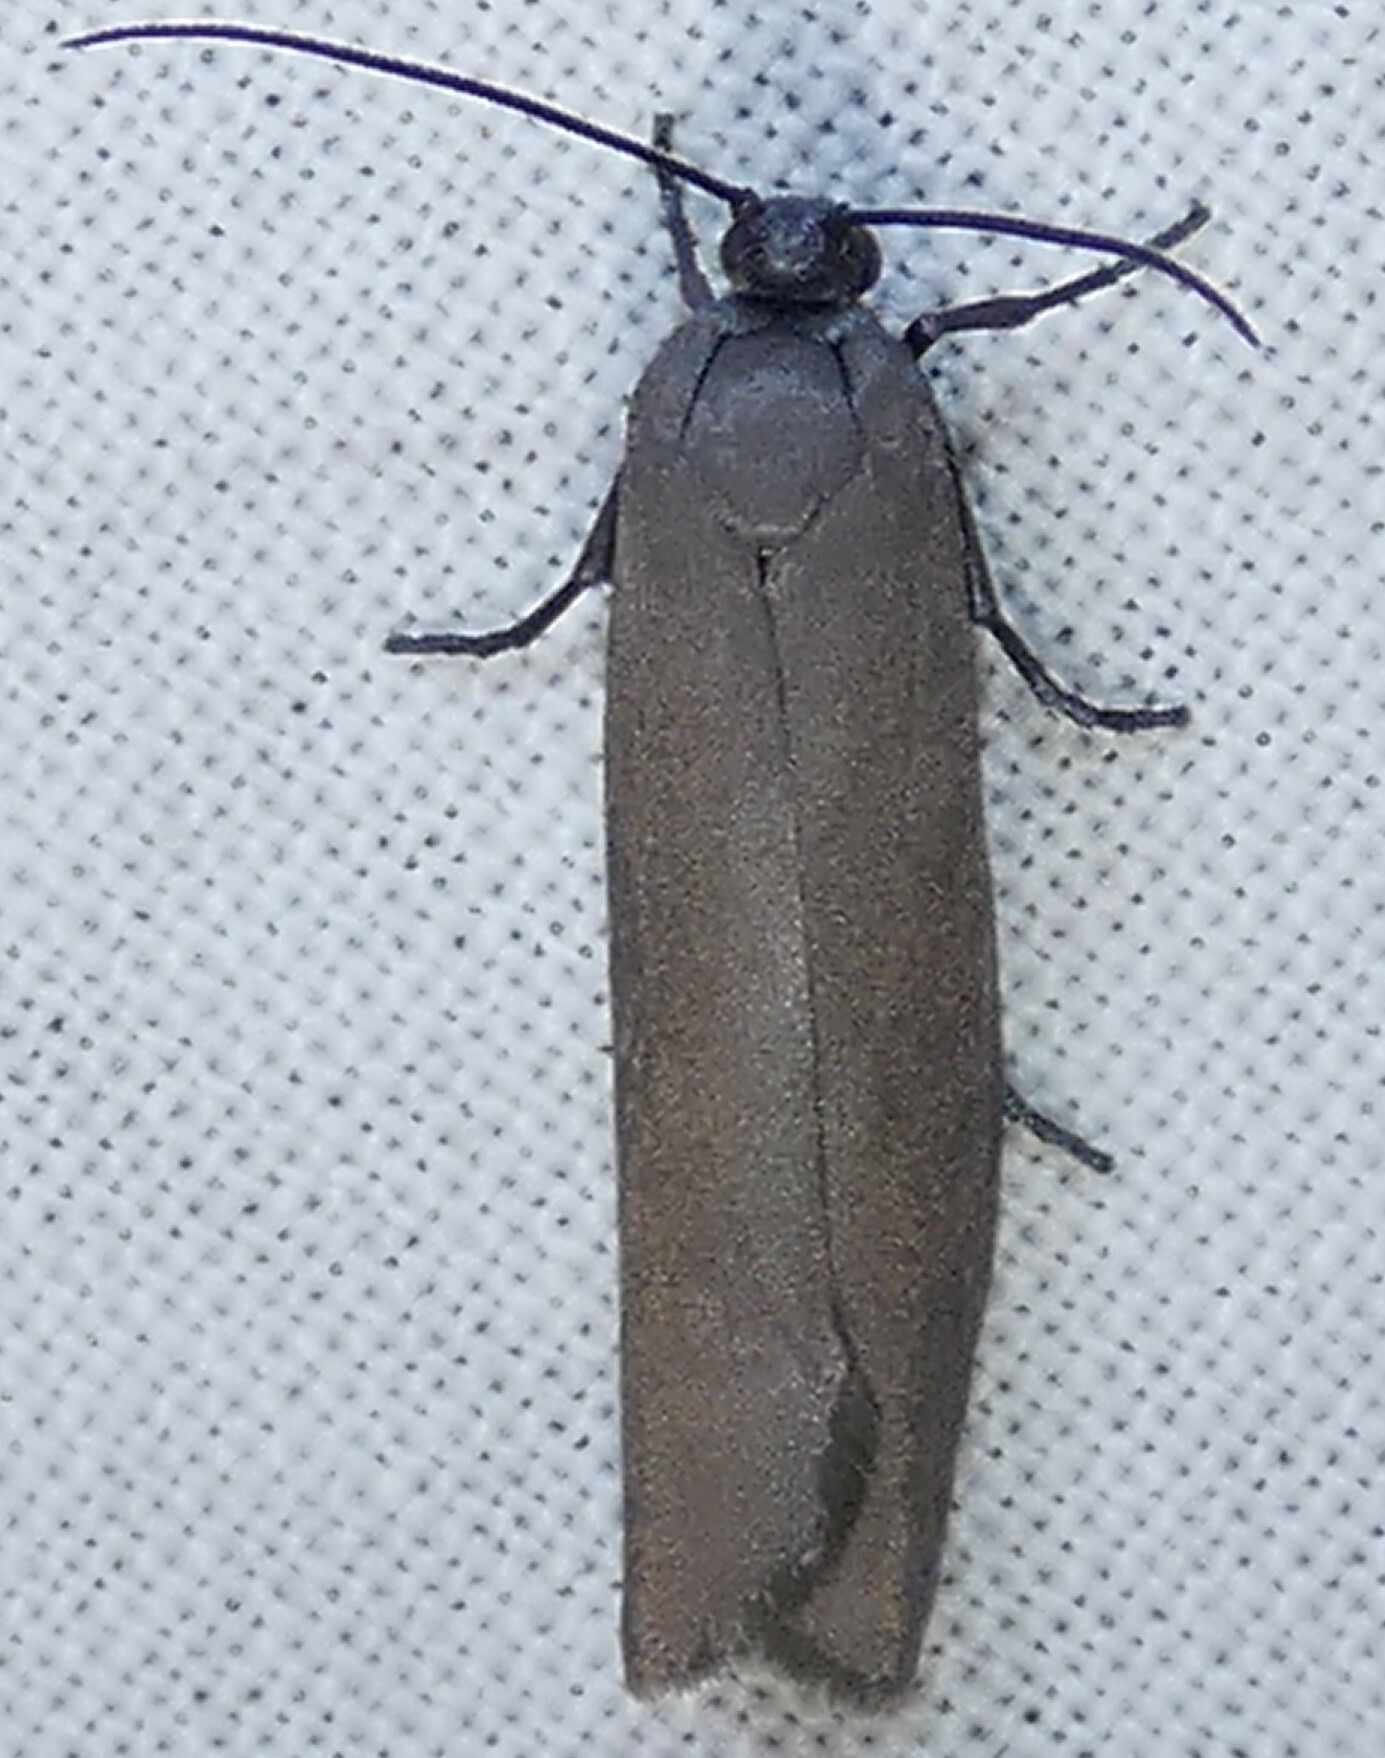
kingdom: Animalia
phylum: Arthropoda
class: Insecta
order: Lepidoptera
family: Urodidae
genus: Urodus
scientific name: Urodus parvula
